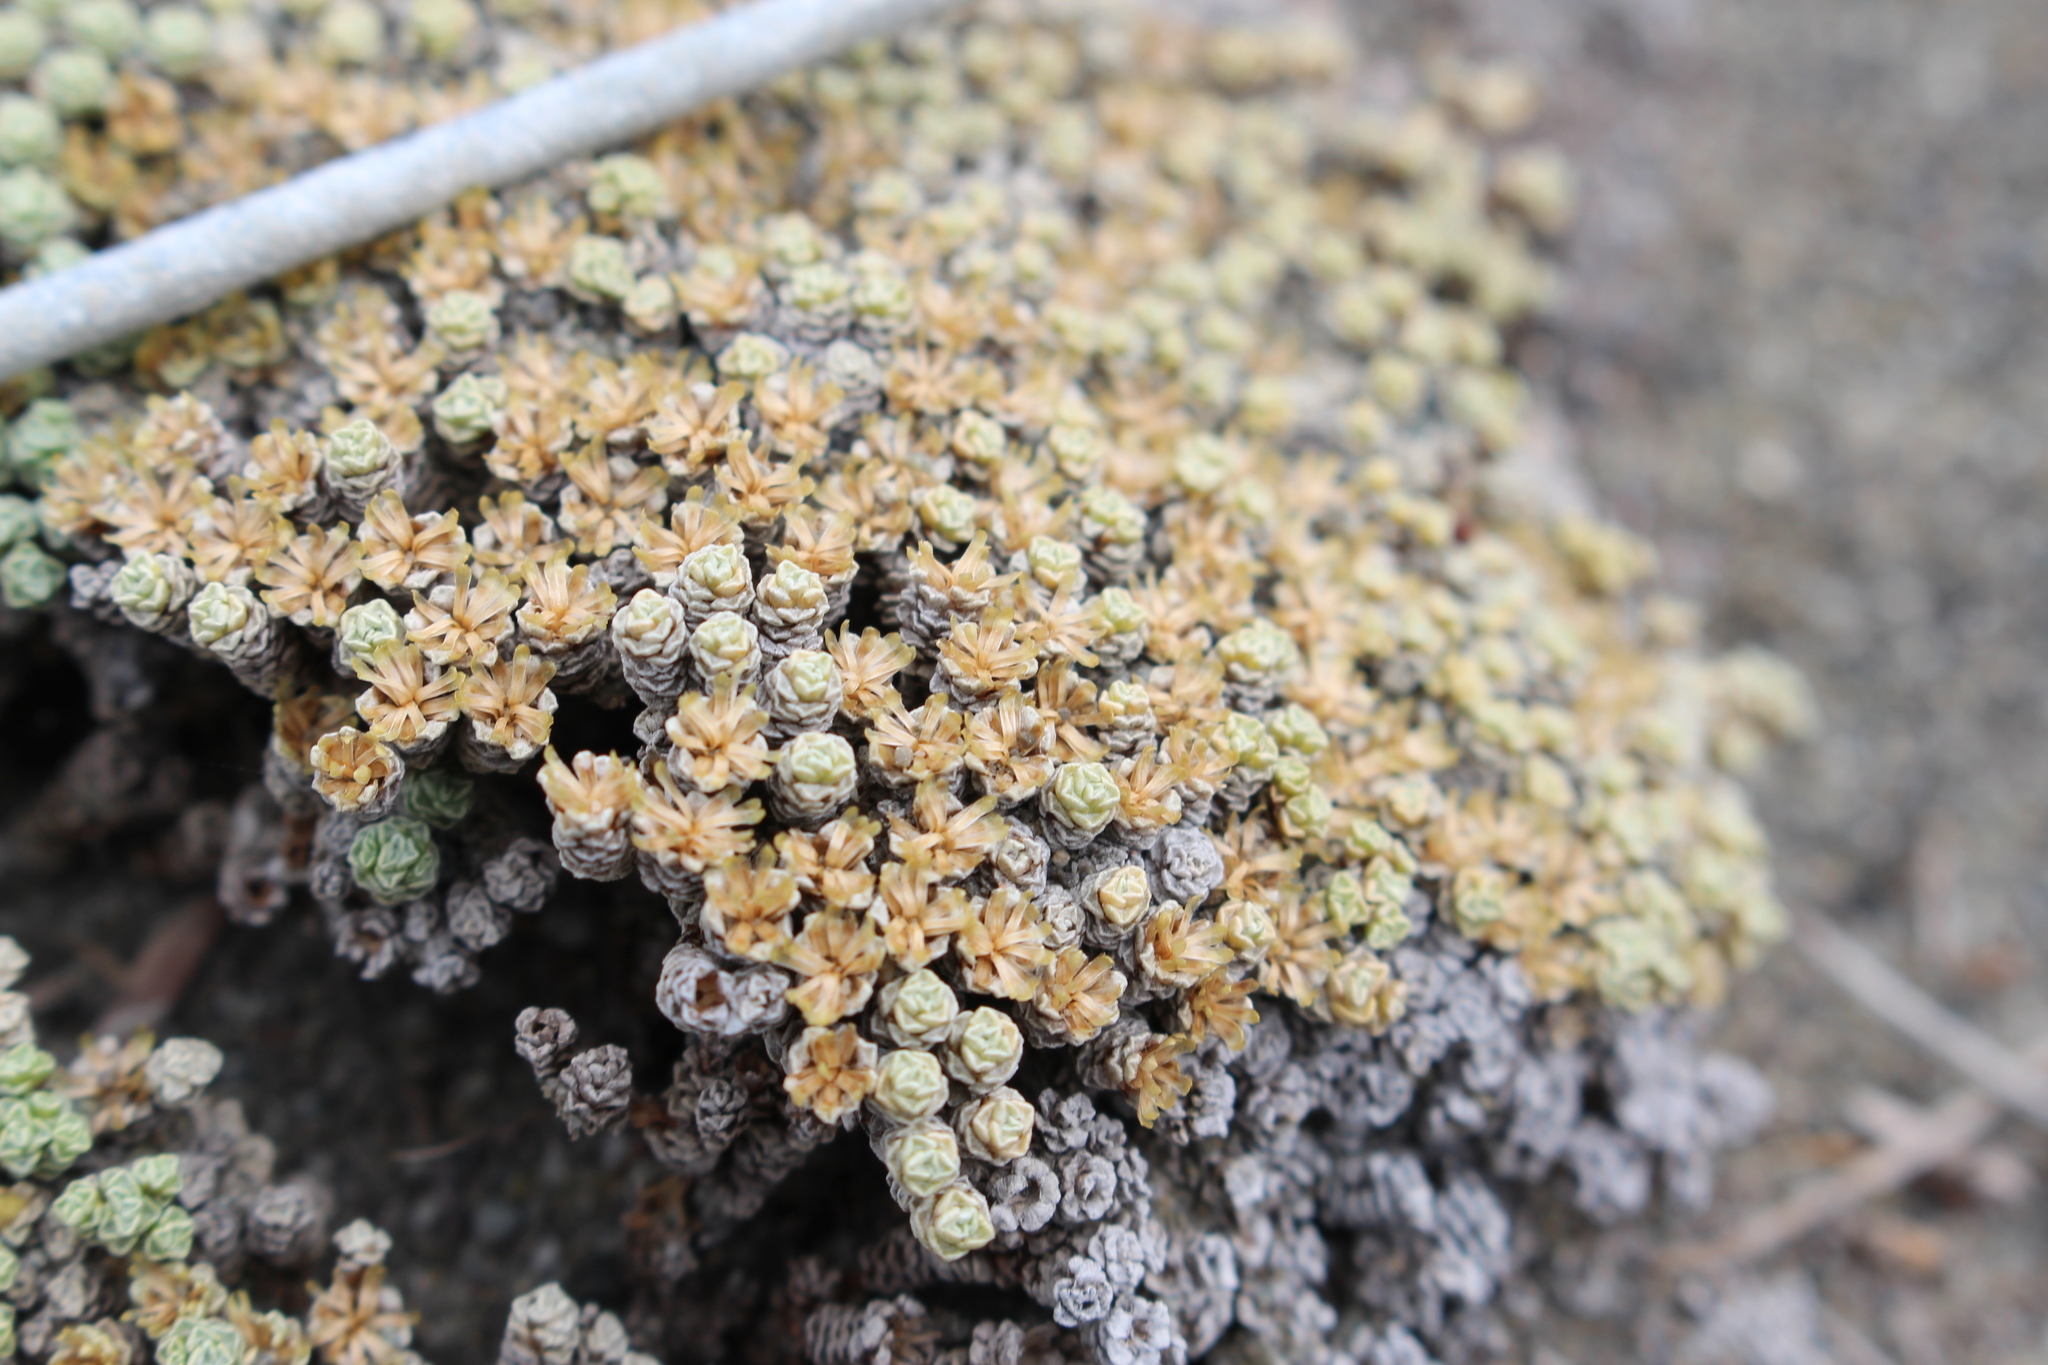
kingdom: Plantae
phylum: Tracheophyta
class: Magnoliopsida
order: Asterales
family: Asteraceae
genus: Raoulia
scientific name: Raoulia australis
